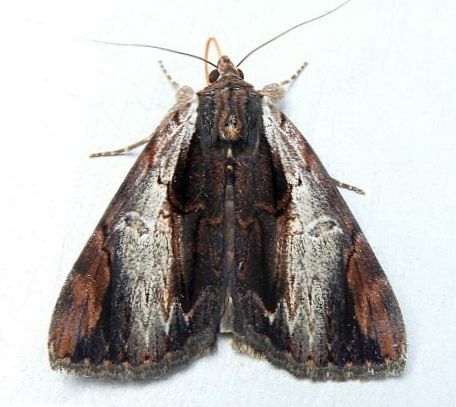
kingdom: Animalia
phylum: Arthropoda
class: Insecta
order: Lepidoptera
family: Erebidae
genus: Catocala
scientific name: Catocala ultronia
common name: Ultronia underwing
